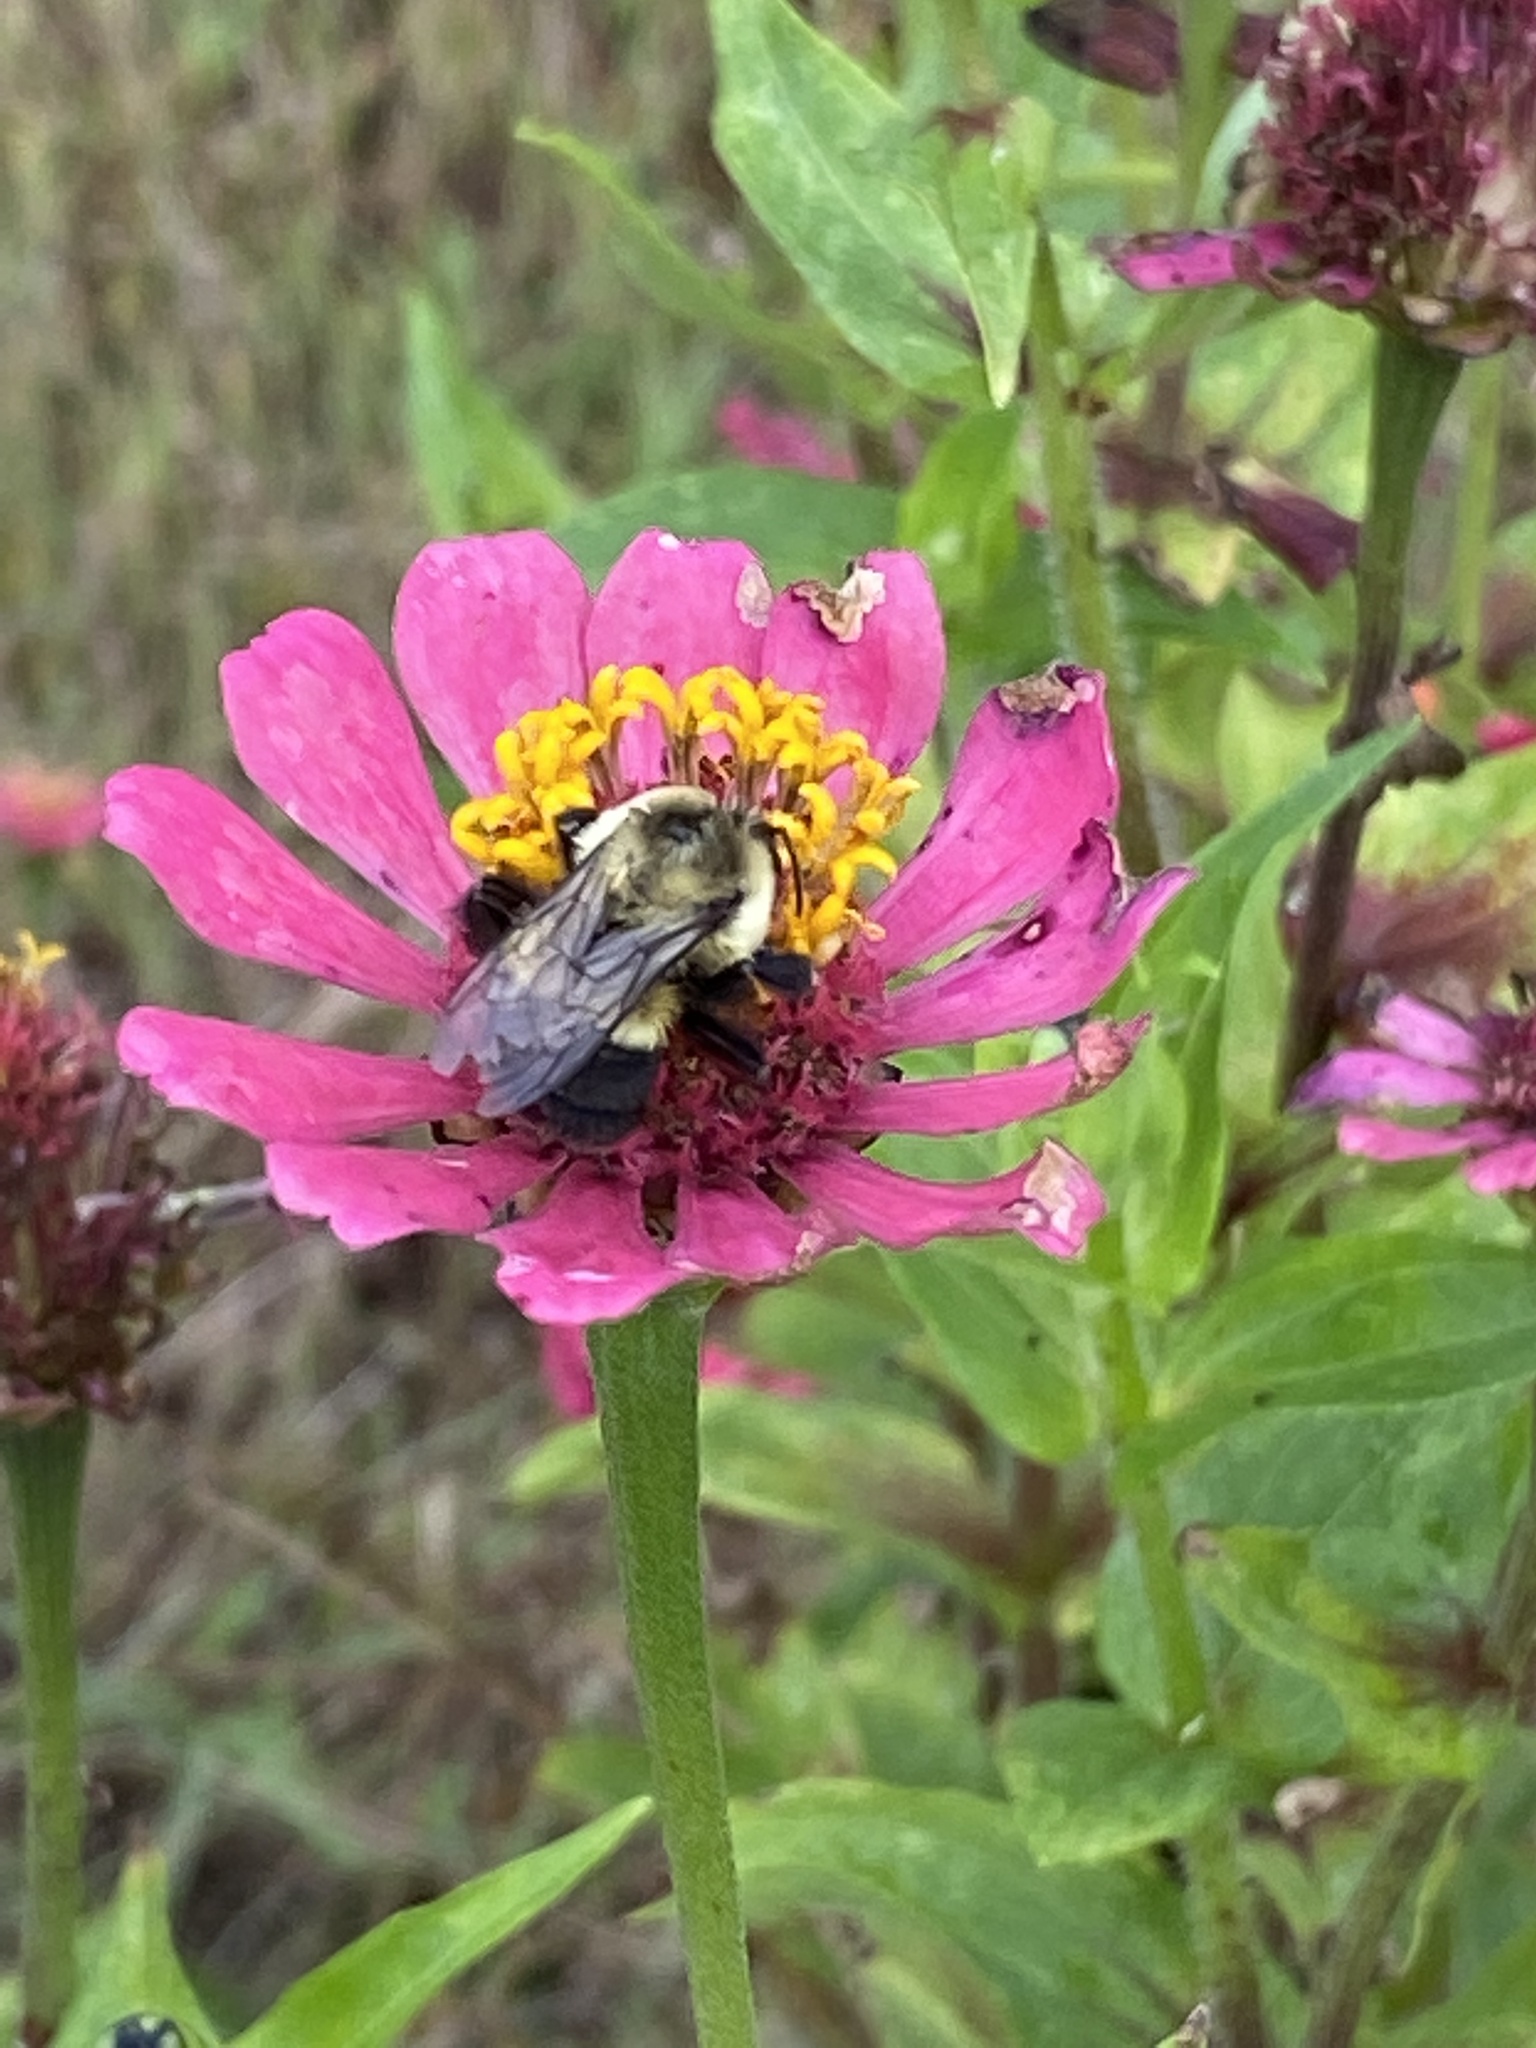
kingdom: Animalia
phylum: Arthropoda
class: Insecta
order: Hymenoptera
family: Apidae
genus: Bombus
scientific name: Bombus impatiens
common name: Common eastern bumble bee
